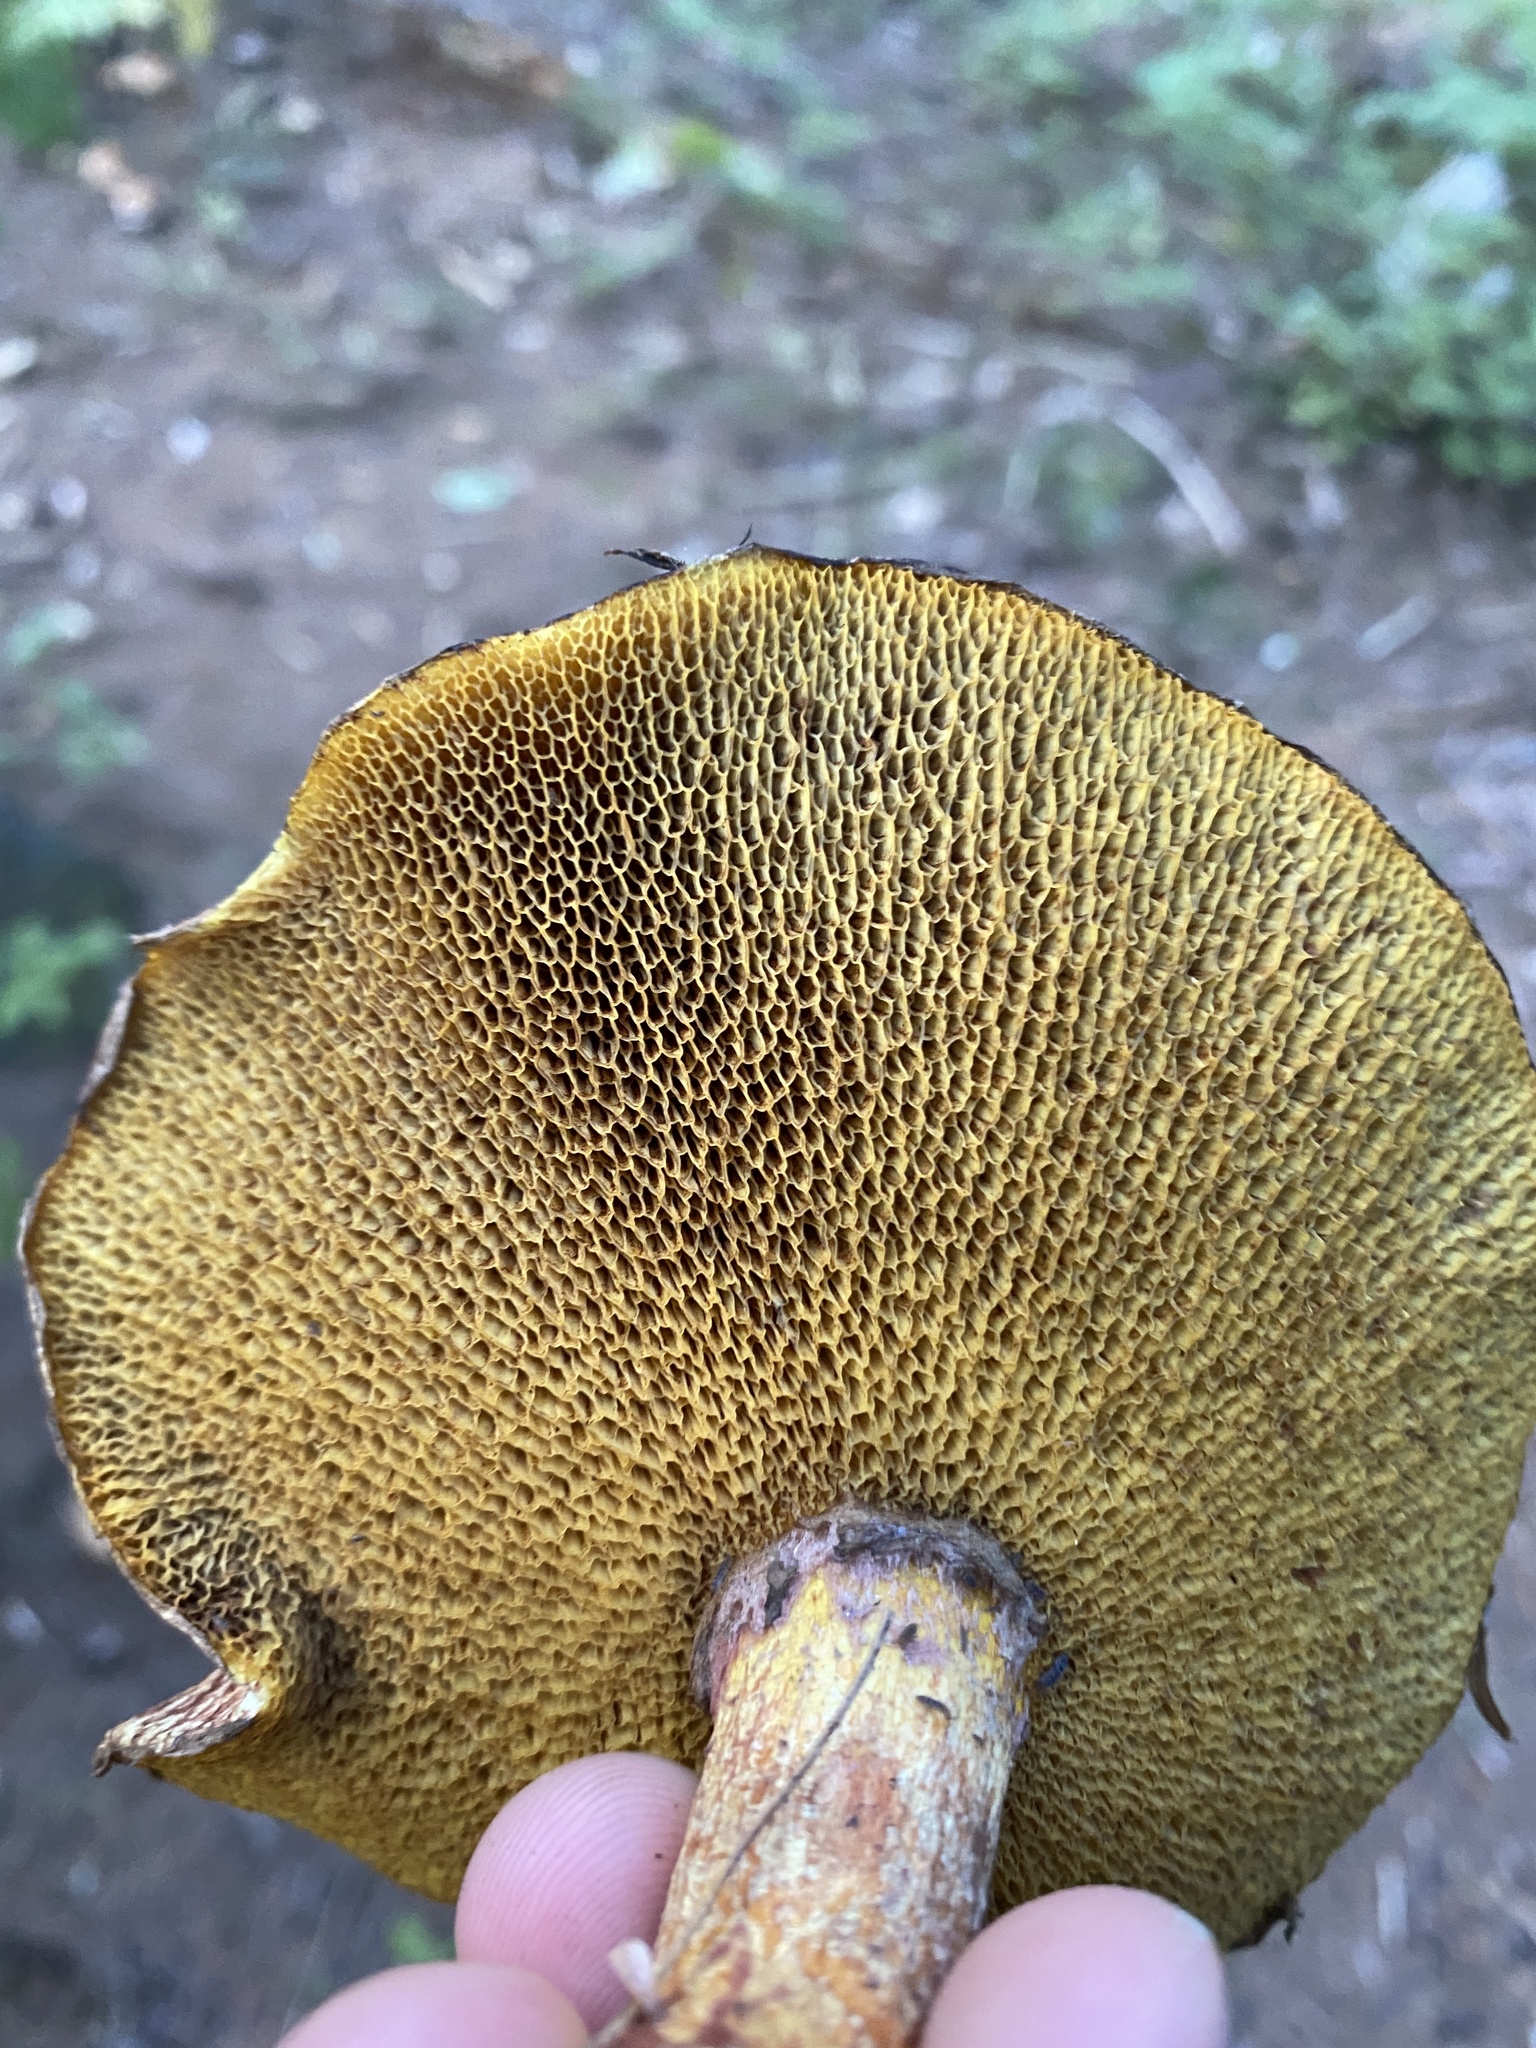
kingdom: Fungi
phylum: Basidiomycota
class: Agaricomycetes
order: Boletales
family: Suillaceae
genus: Suillus
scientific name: Suillus spraguei
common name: Painted suillus
